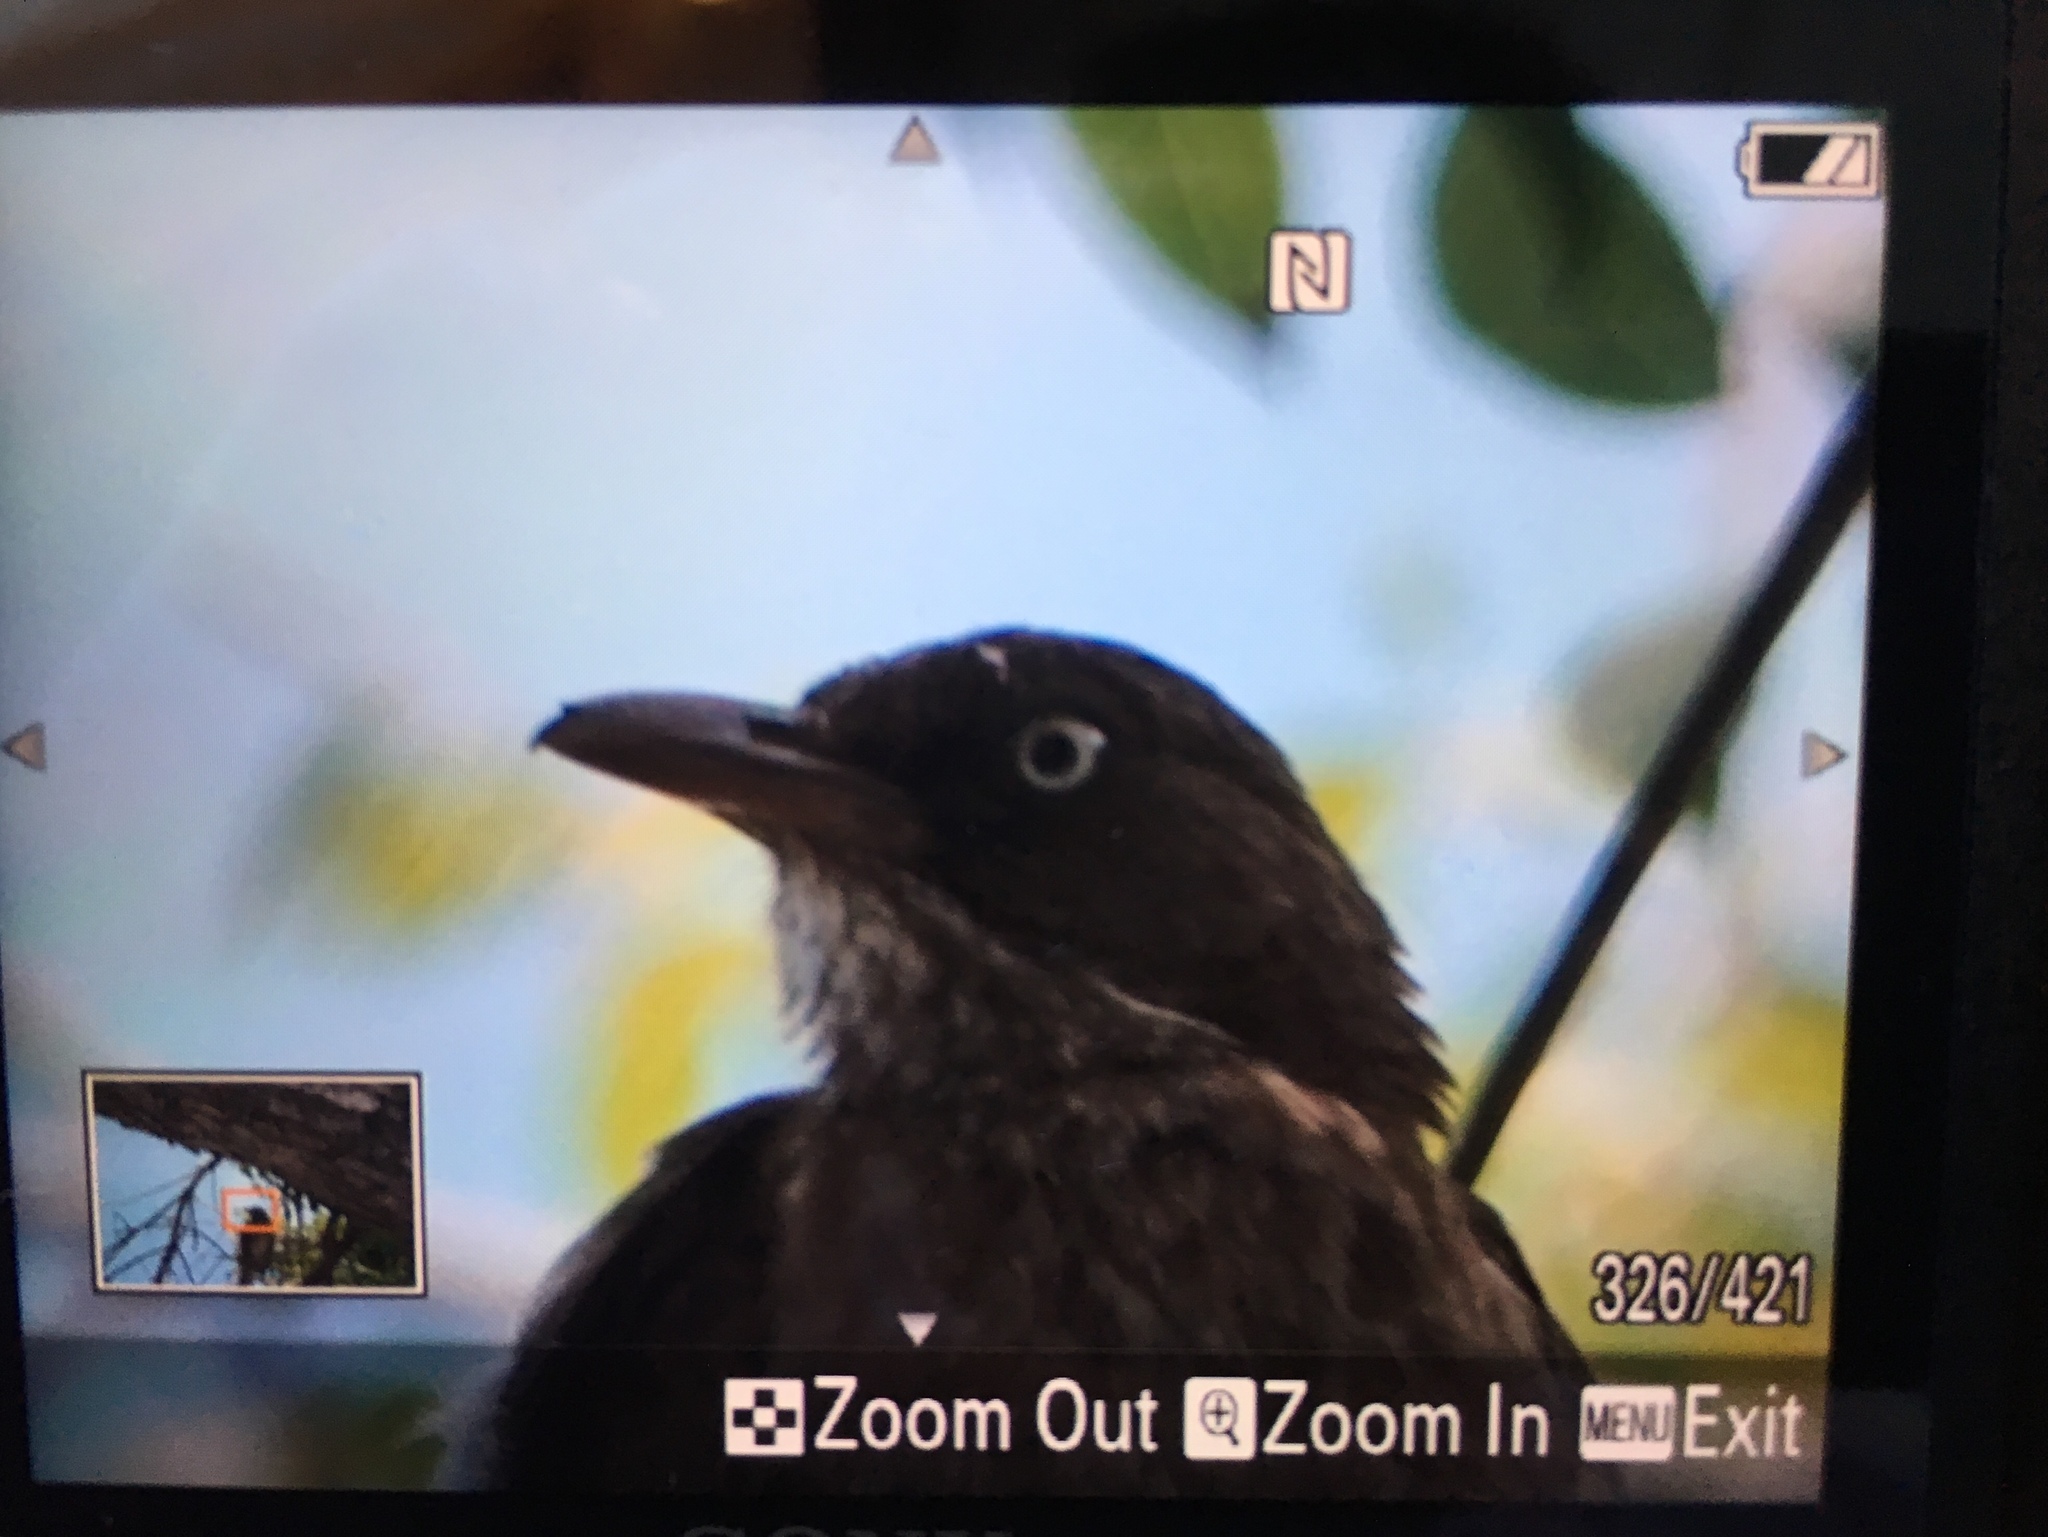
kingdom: Animalia
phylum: Chordata
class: Aves
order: Passeriformes
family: Mimidae
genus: Margarops
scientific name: Margarops fuscatus
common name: Pearly-eyed thrasher
